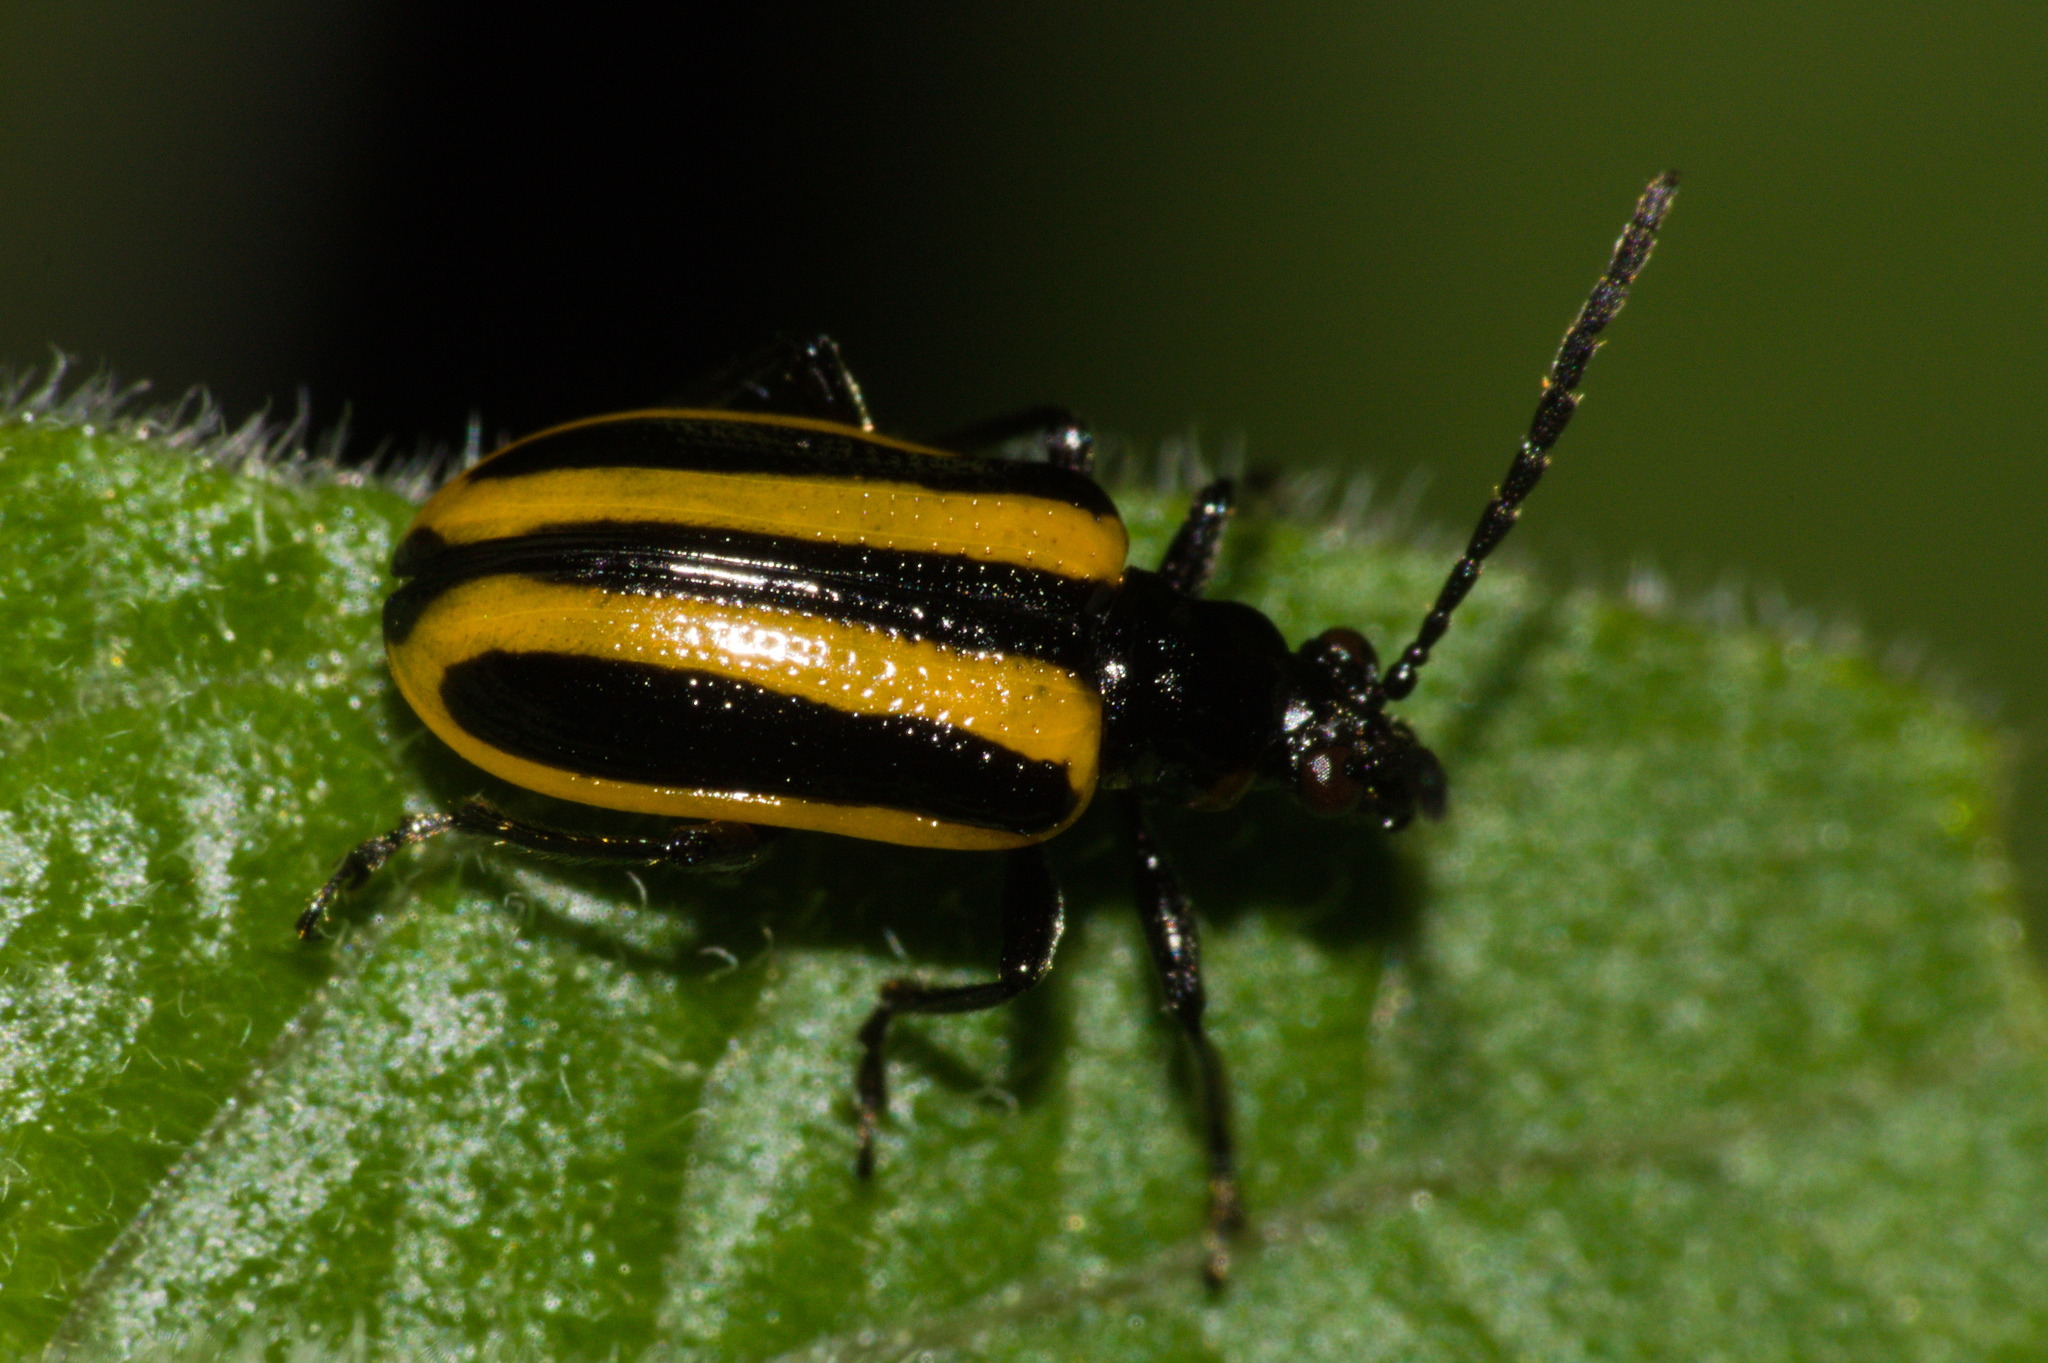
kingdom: Animalia
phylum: Arthropoda
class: Insecta
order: Coleoptera
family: Chrysomelidae
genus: Lema
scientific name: Lema confusa
